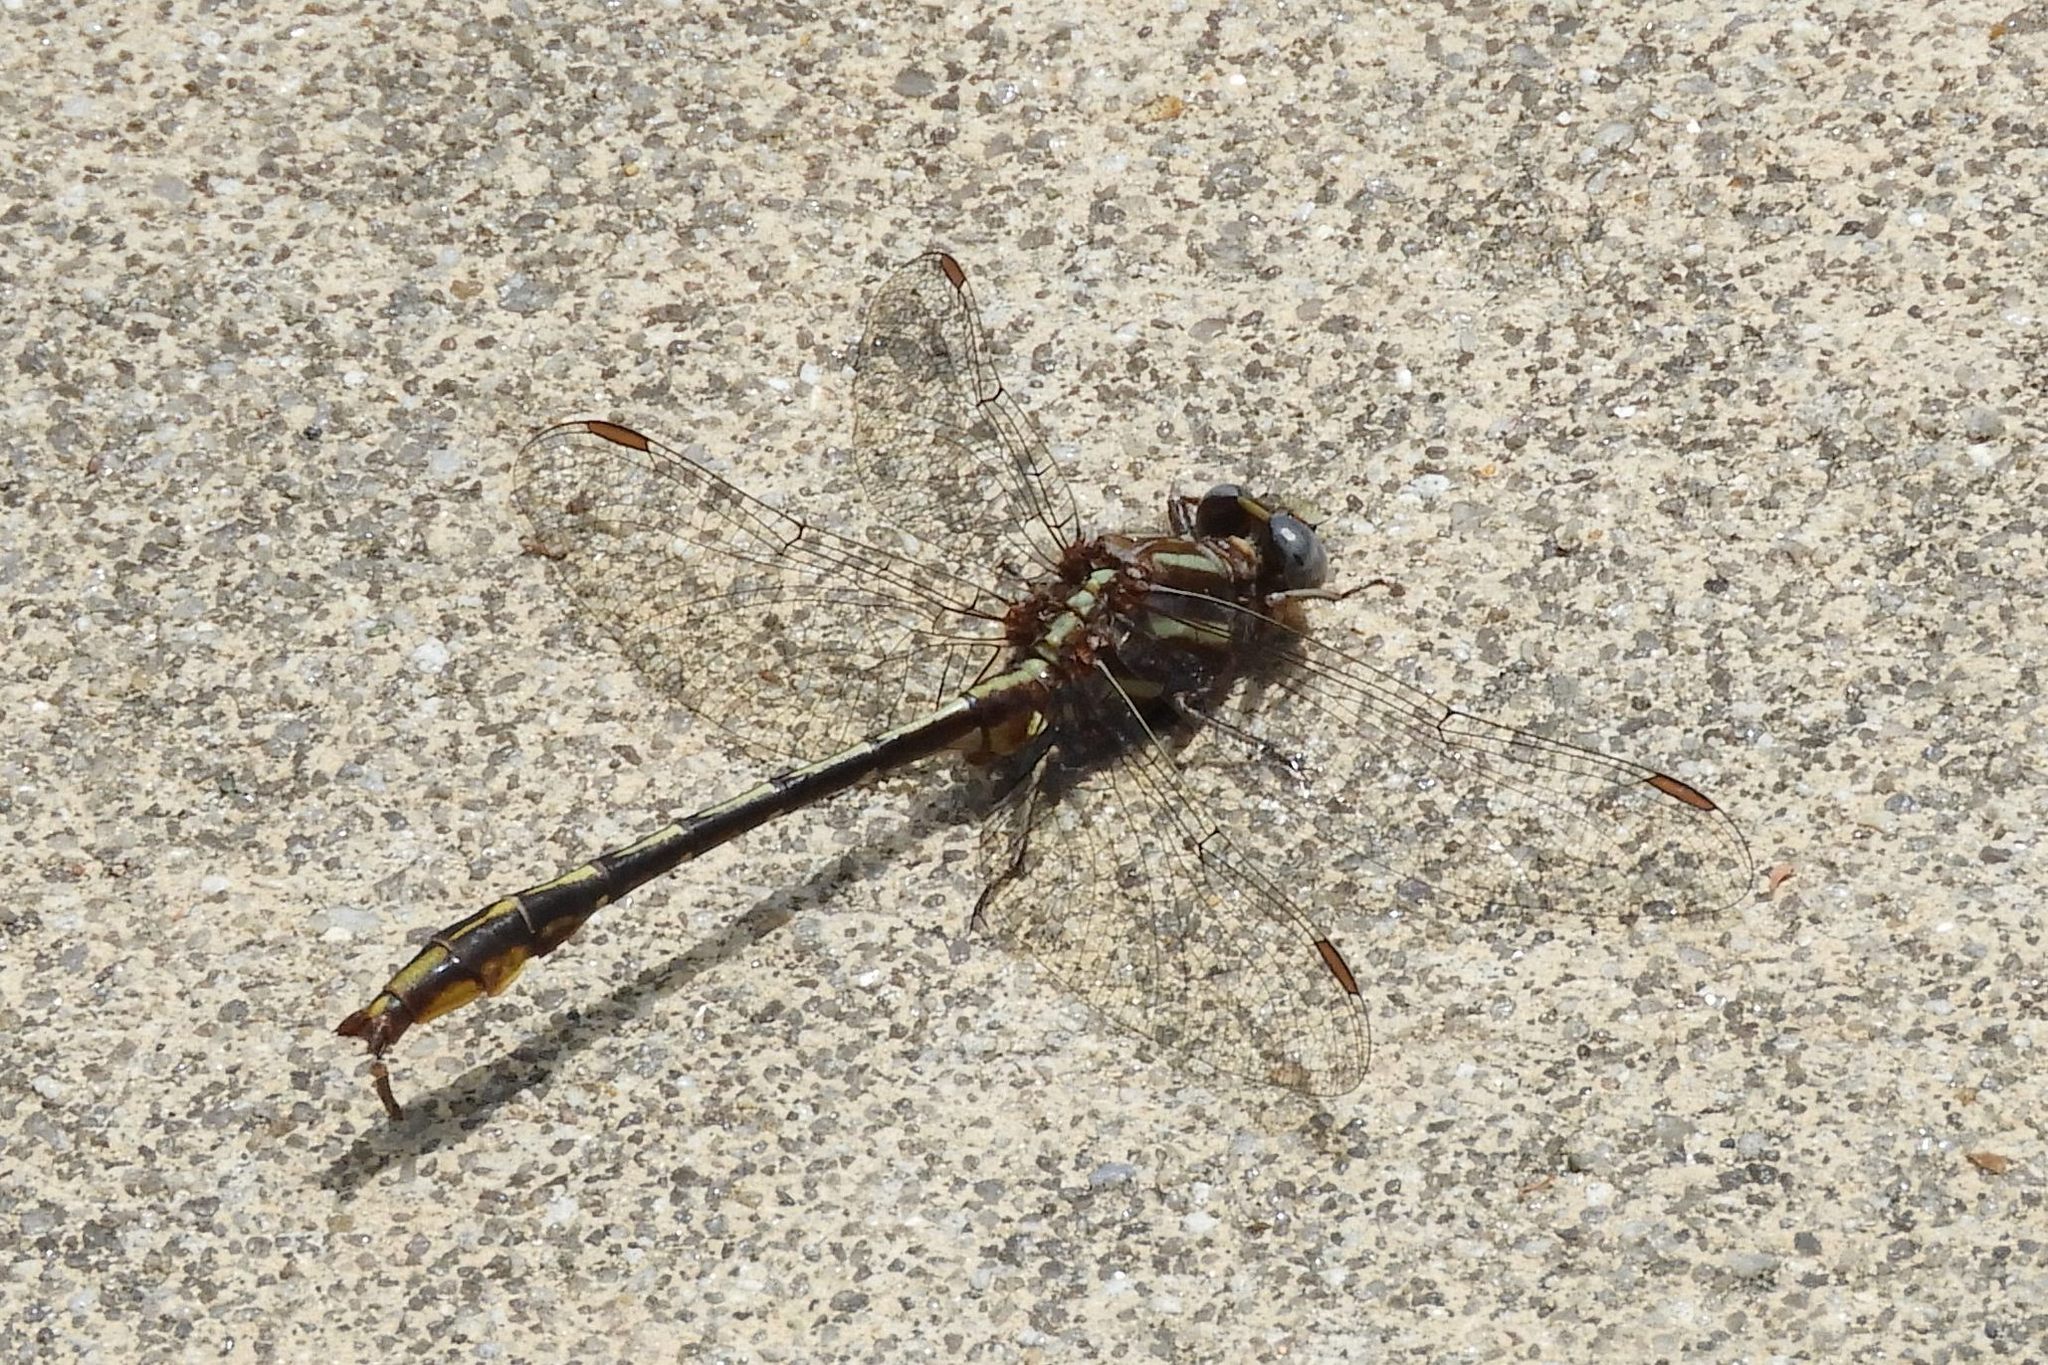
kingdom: Animalia
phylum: Arthropoda
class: Insecta
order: Odonata
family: Gomphidae
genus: Phanogomphus
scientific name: Phanogomphus exilis
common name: Lancet clubtail
